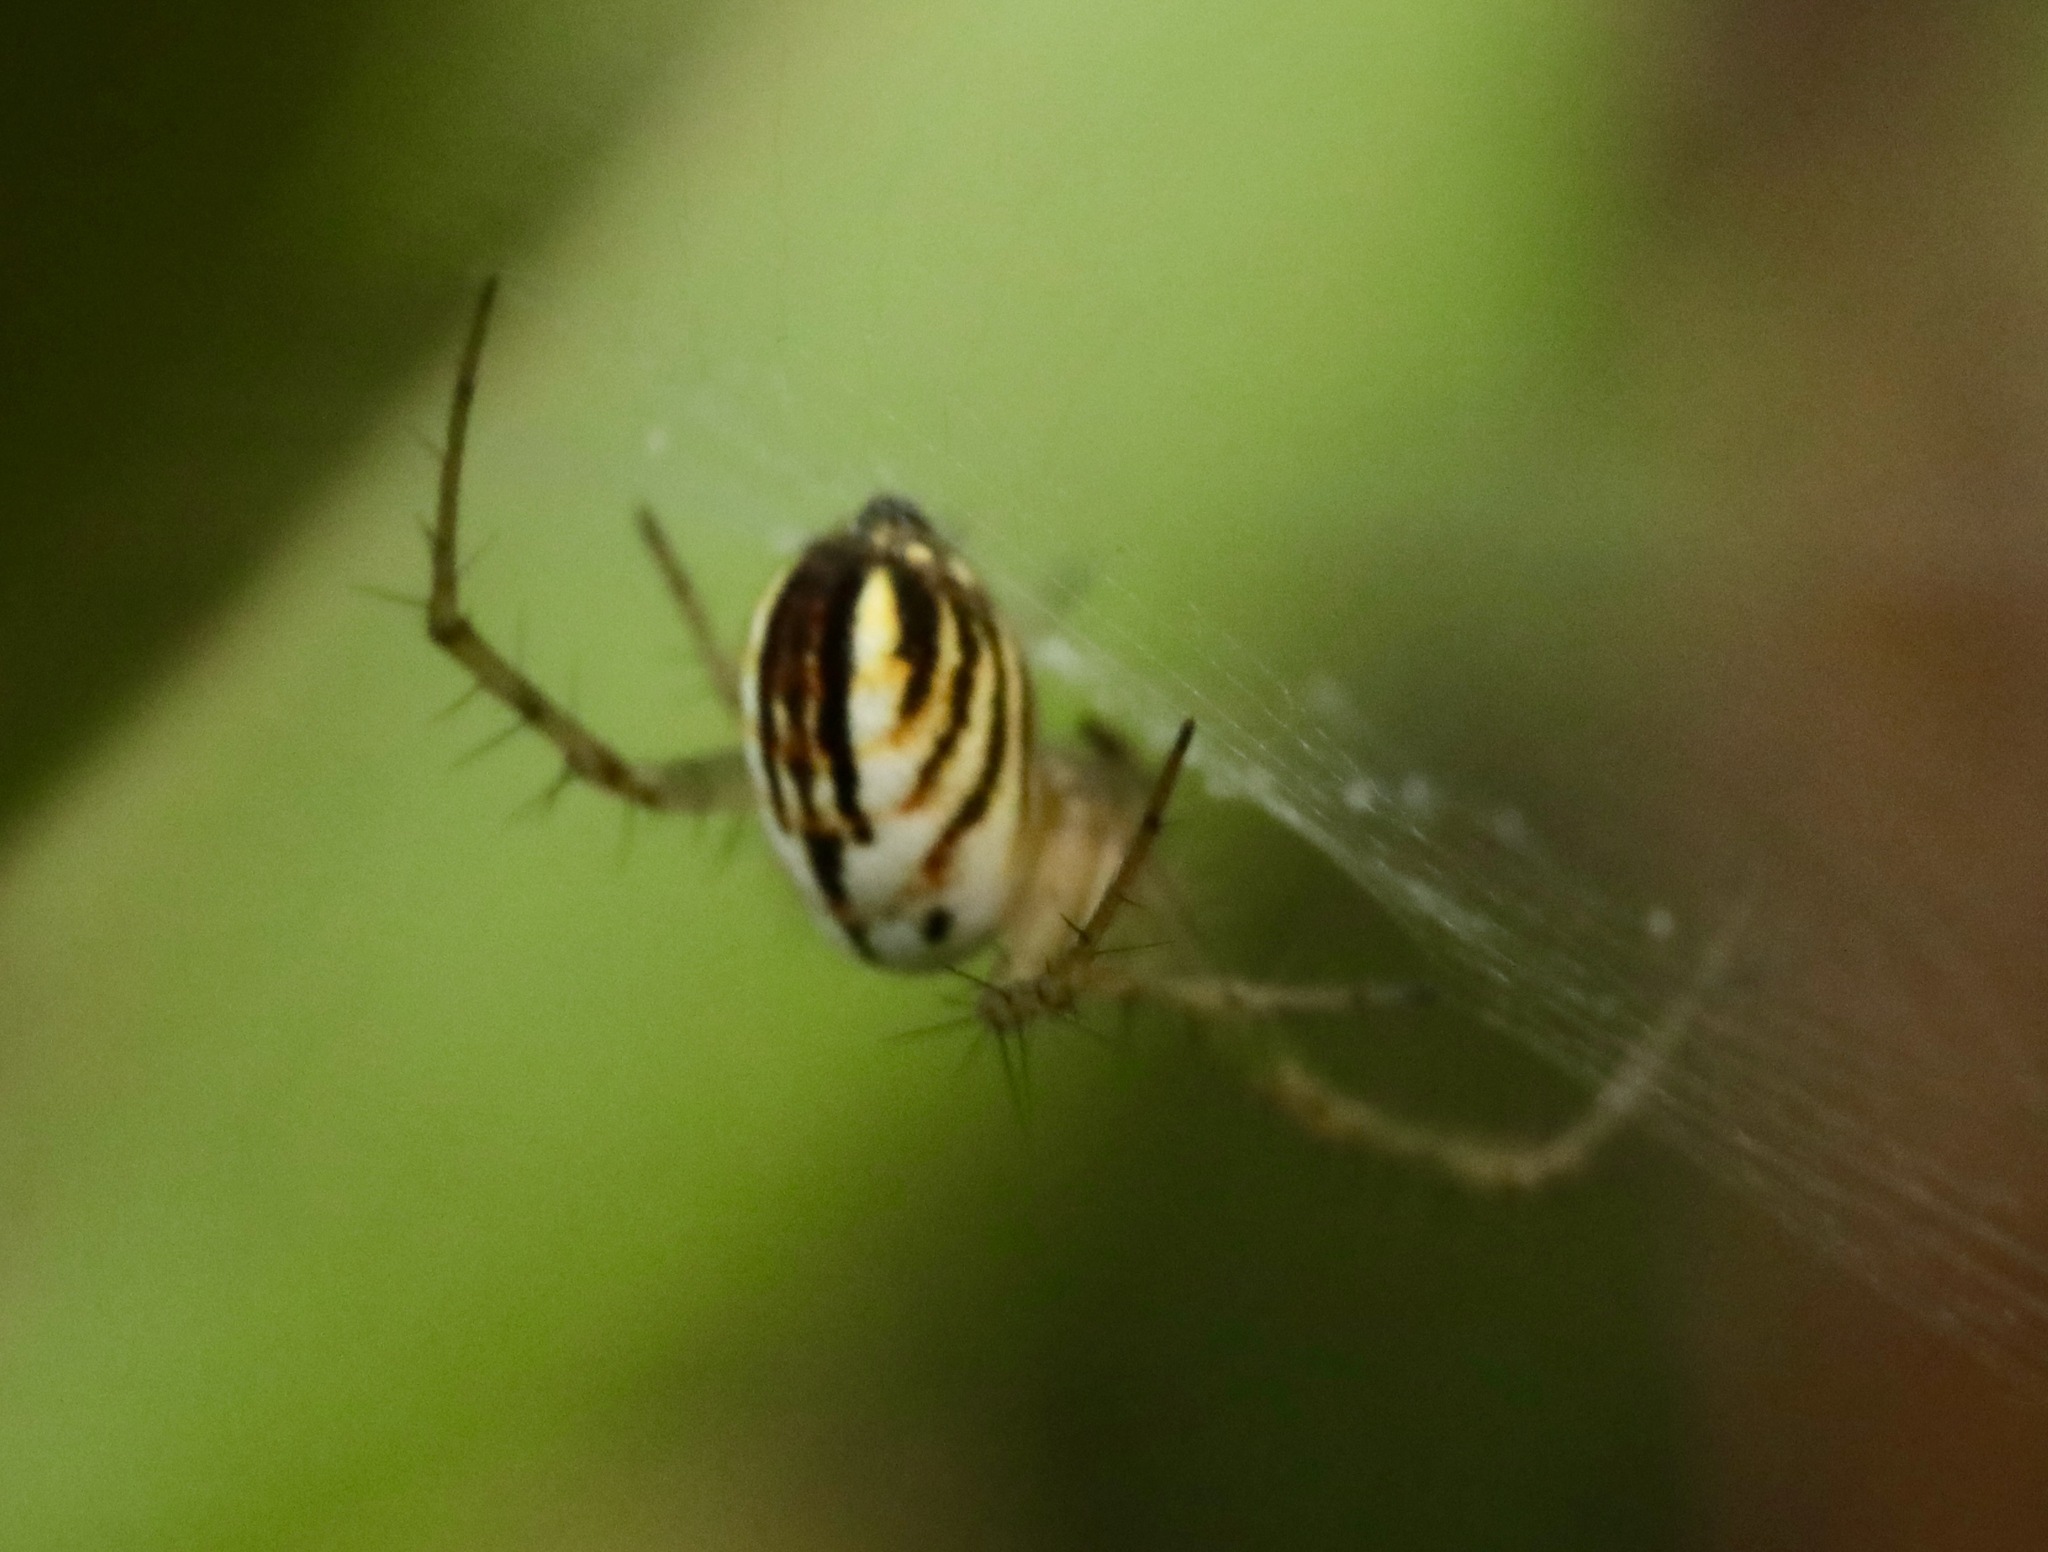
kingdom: Animalia
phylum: Arthropoda
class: Arachnida
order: Araneae
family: Araneidae
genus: Mangora
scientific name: Mangora gibberosa
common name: Lined orbweaver
